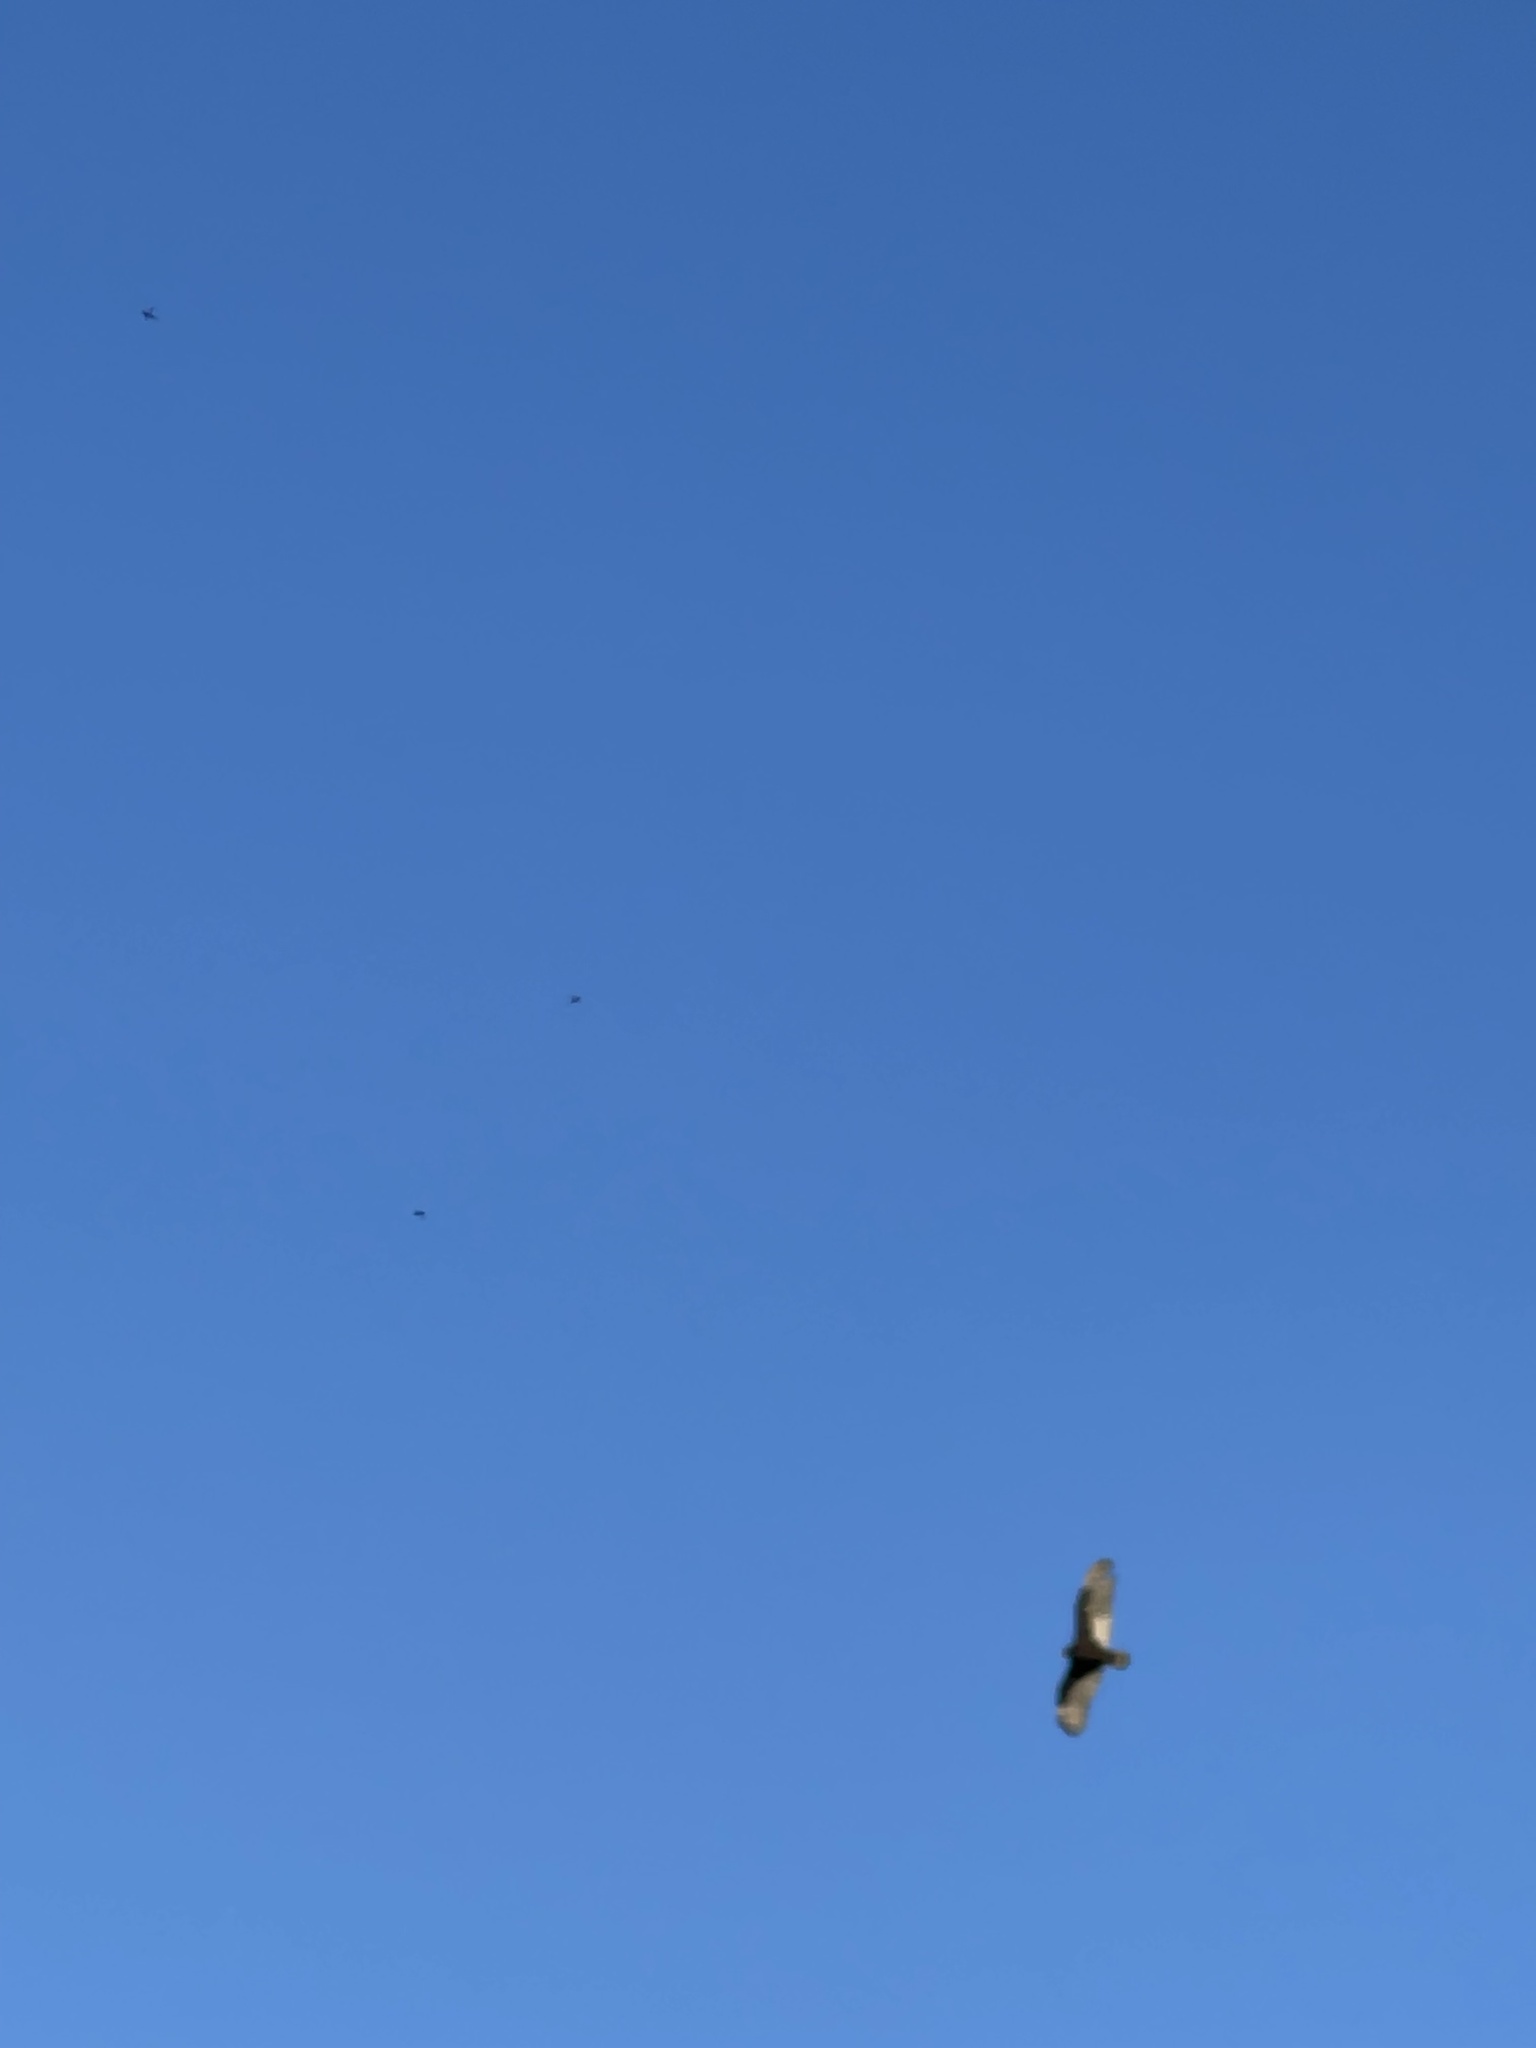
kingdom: Animalia
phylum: Chordata
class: Aves
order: Accipitriformes
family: Cathartidae
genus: Cathartes
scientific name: Cathartes aura
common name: Turkey vulture
